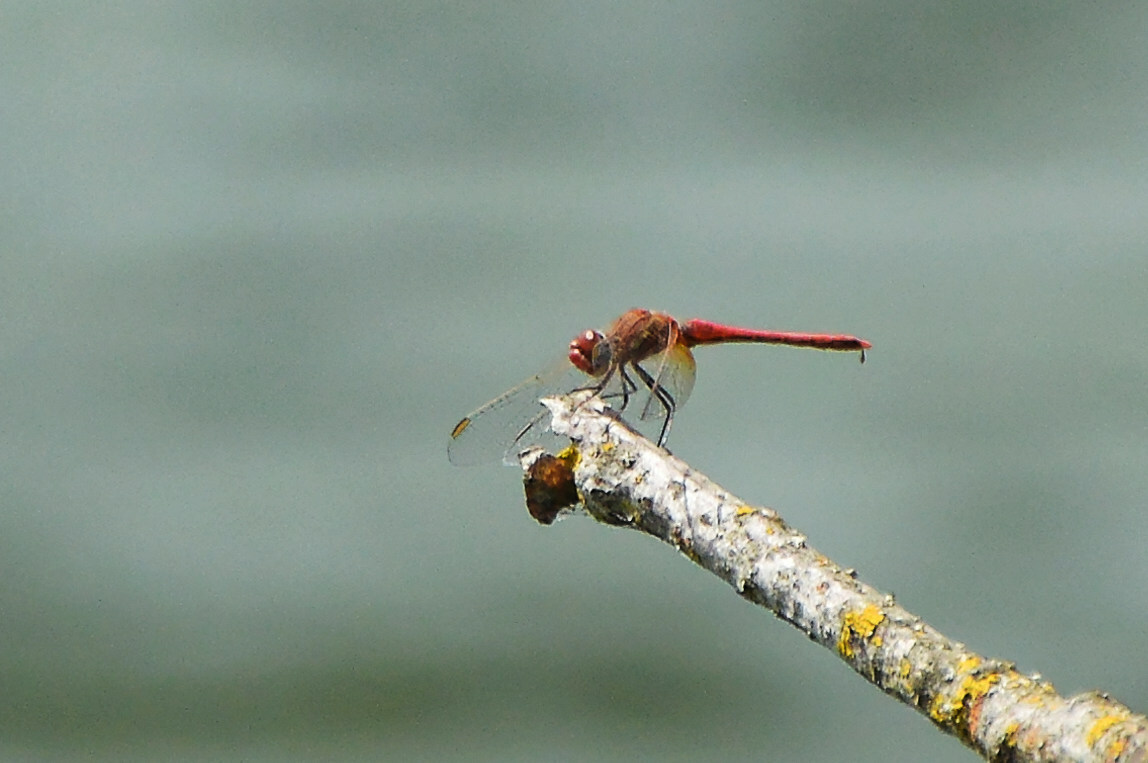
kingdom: Animalia
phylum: Arthropoda
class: Insecta
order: Odonata
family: Libellulidae
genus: Sympetrum
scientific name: Sympetrum fonscolombii
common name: Red-veined darter
